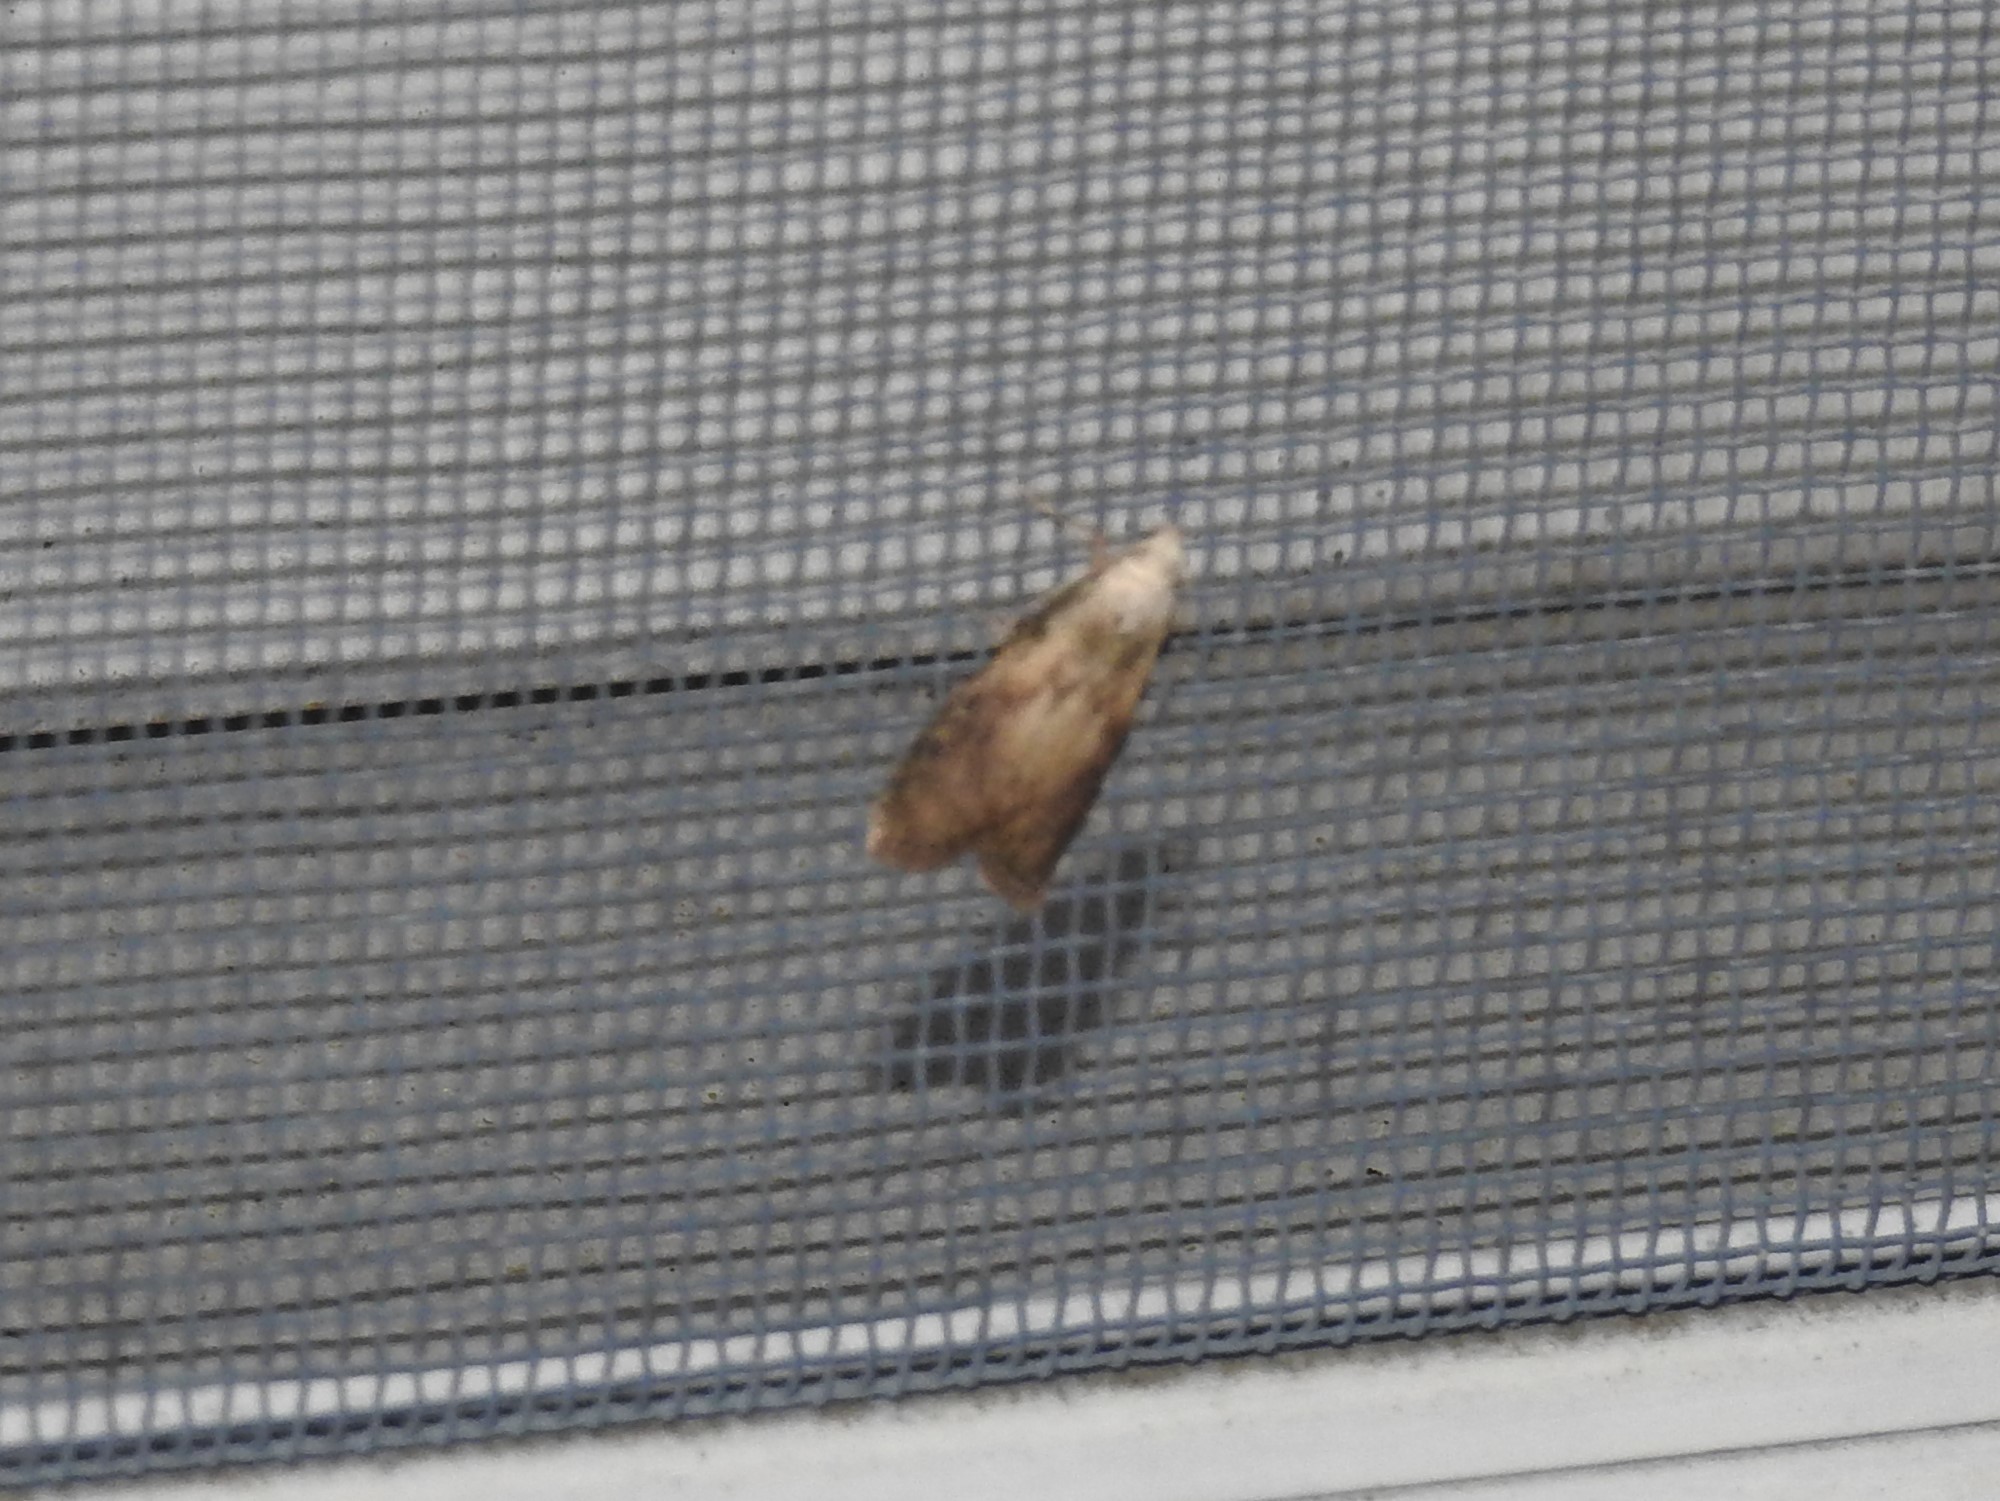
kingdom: Animalia
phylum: Arthropoda
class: Insecta
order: Lepidoptera
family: Pyralidae
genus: Aphomia
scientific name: Aphomia sociella
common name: Bee moth
